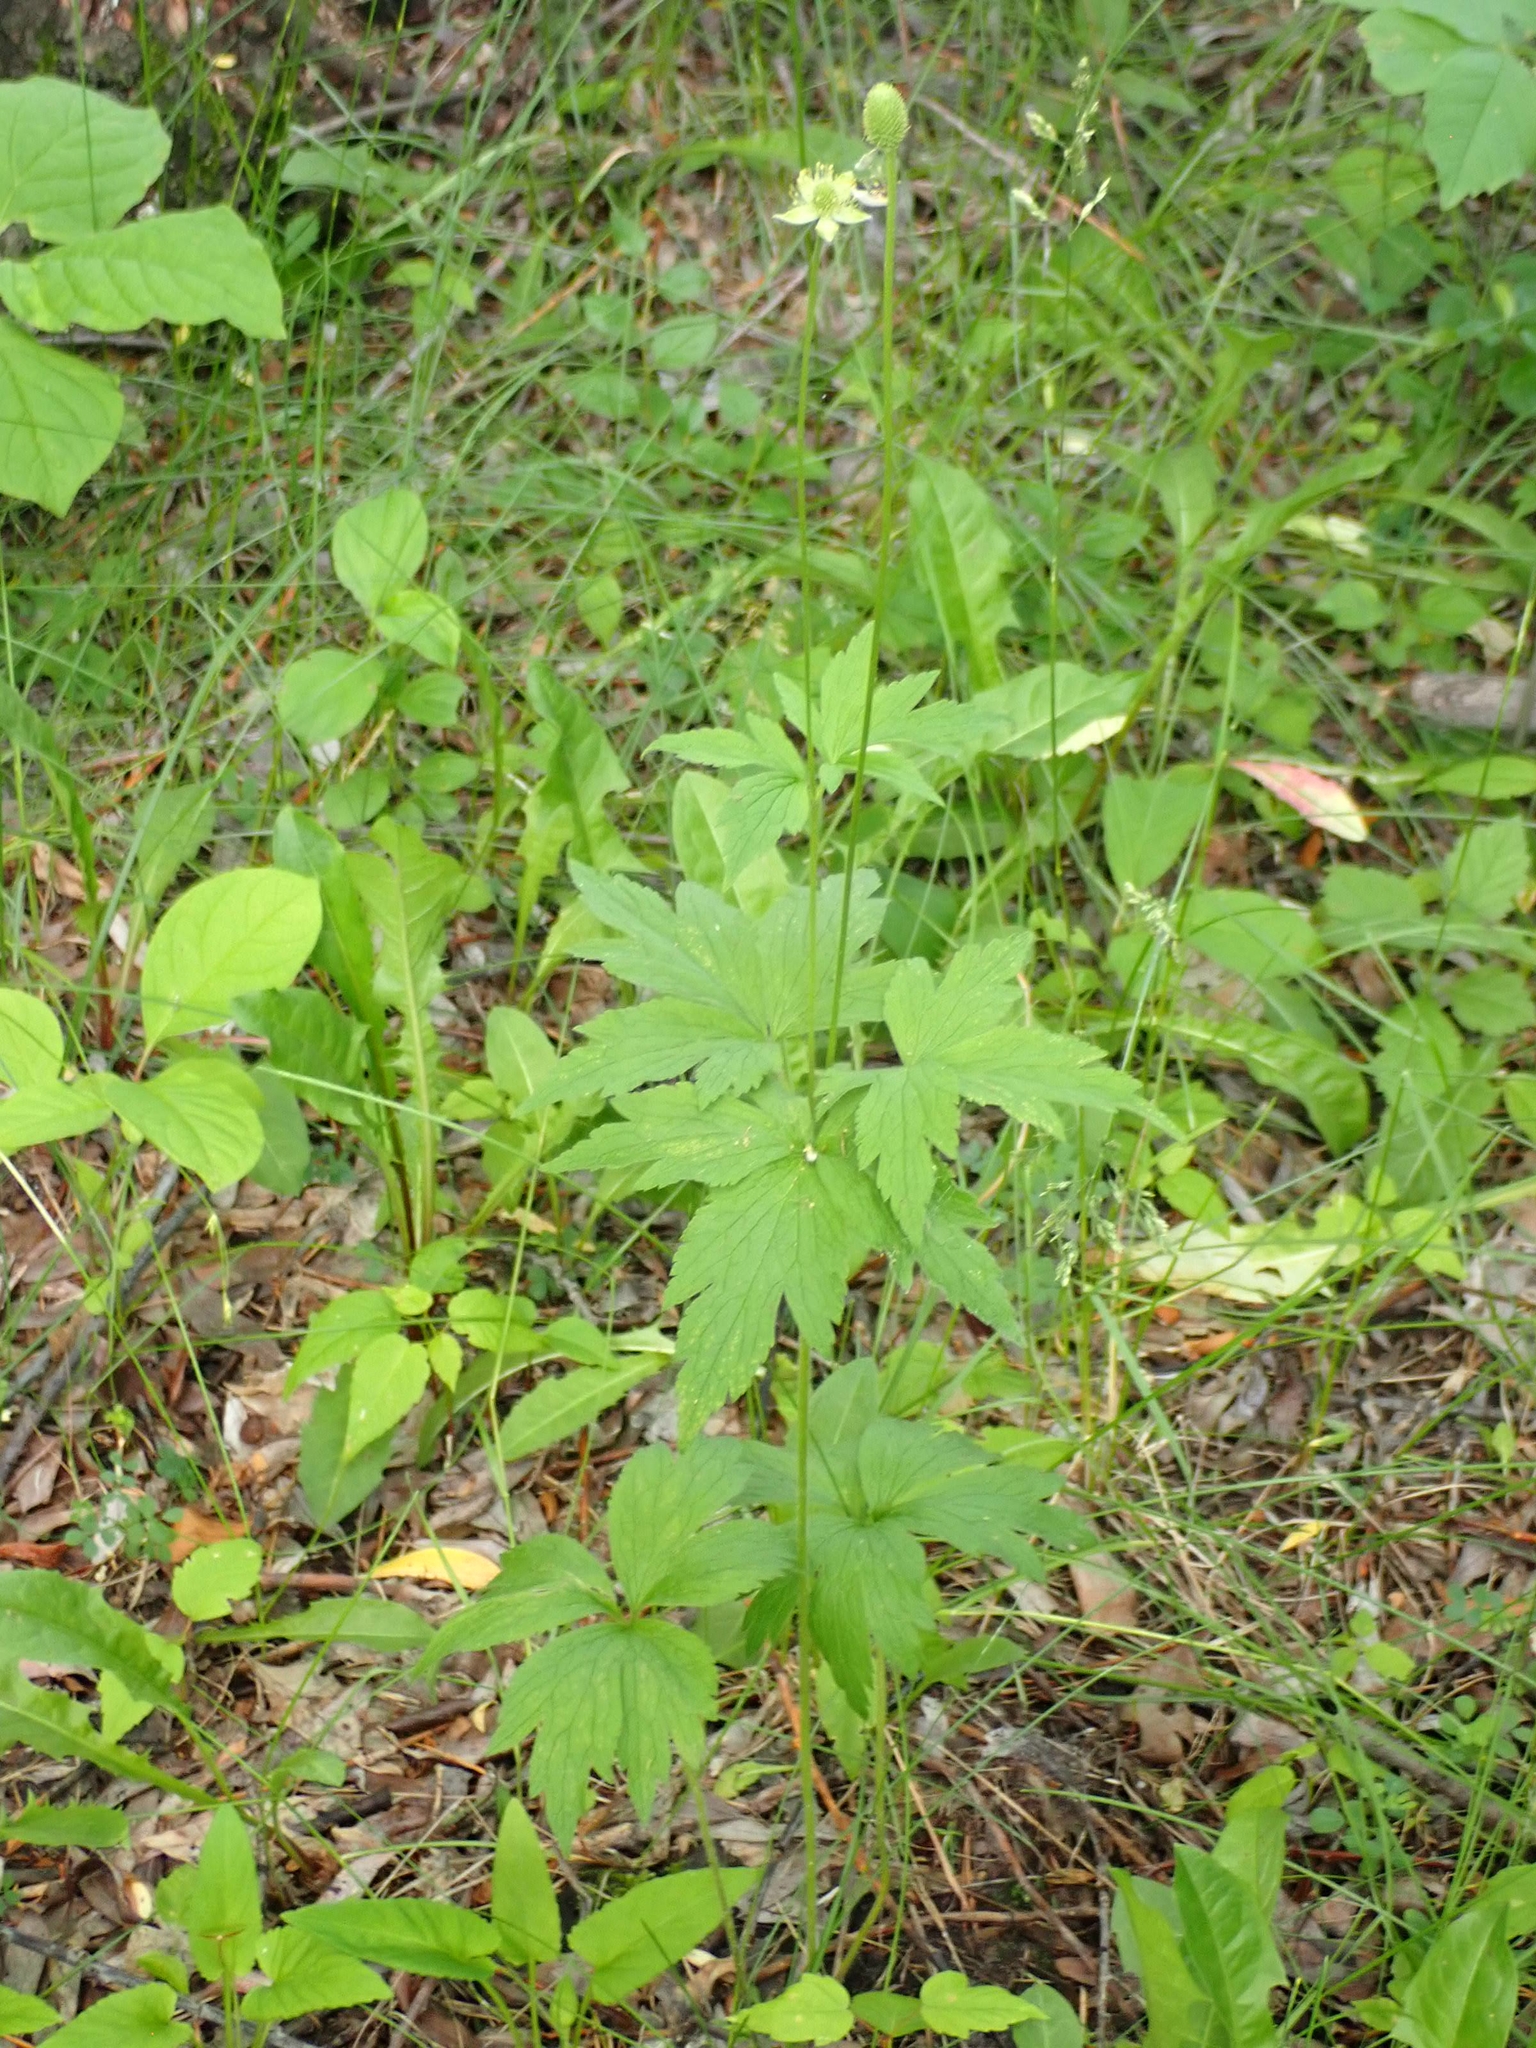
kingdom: Plantae
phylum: Tracheophyta
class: Magnoliopsida
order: Ranunculales
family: Ranunculaceae
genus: Anemone
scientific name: Anemone virginiana
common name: Tall anemone
